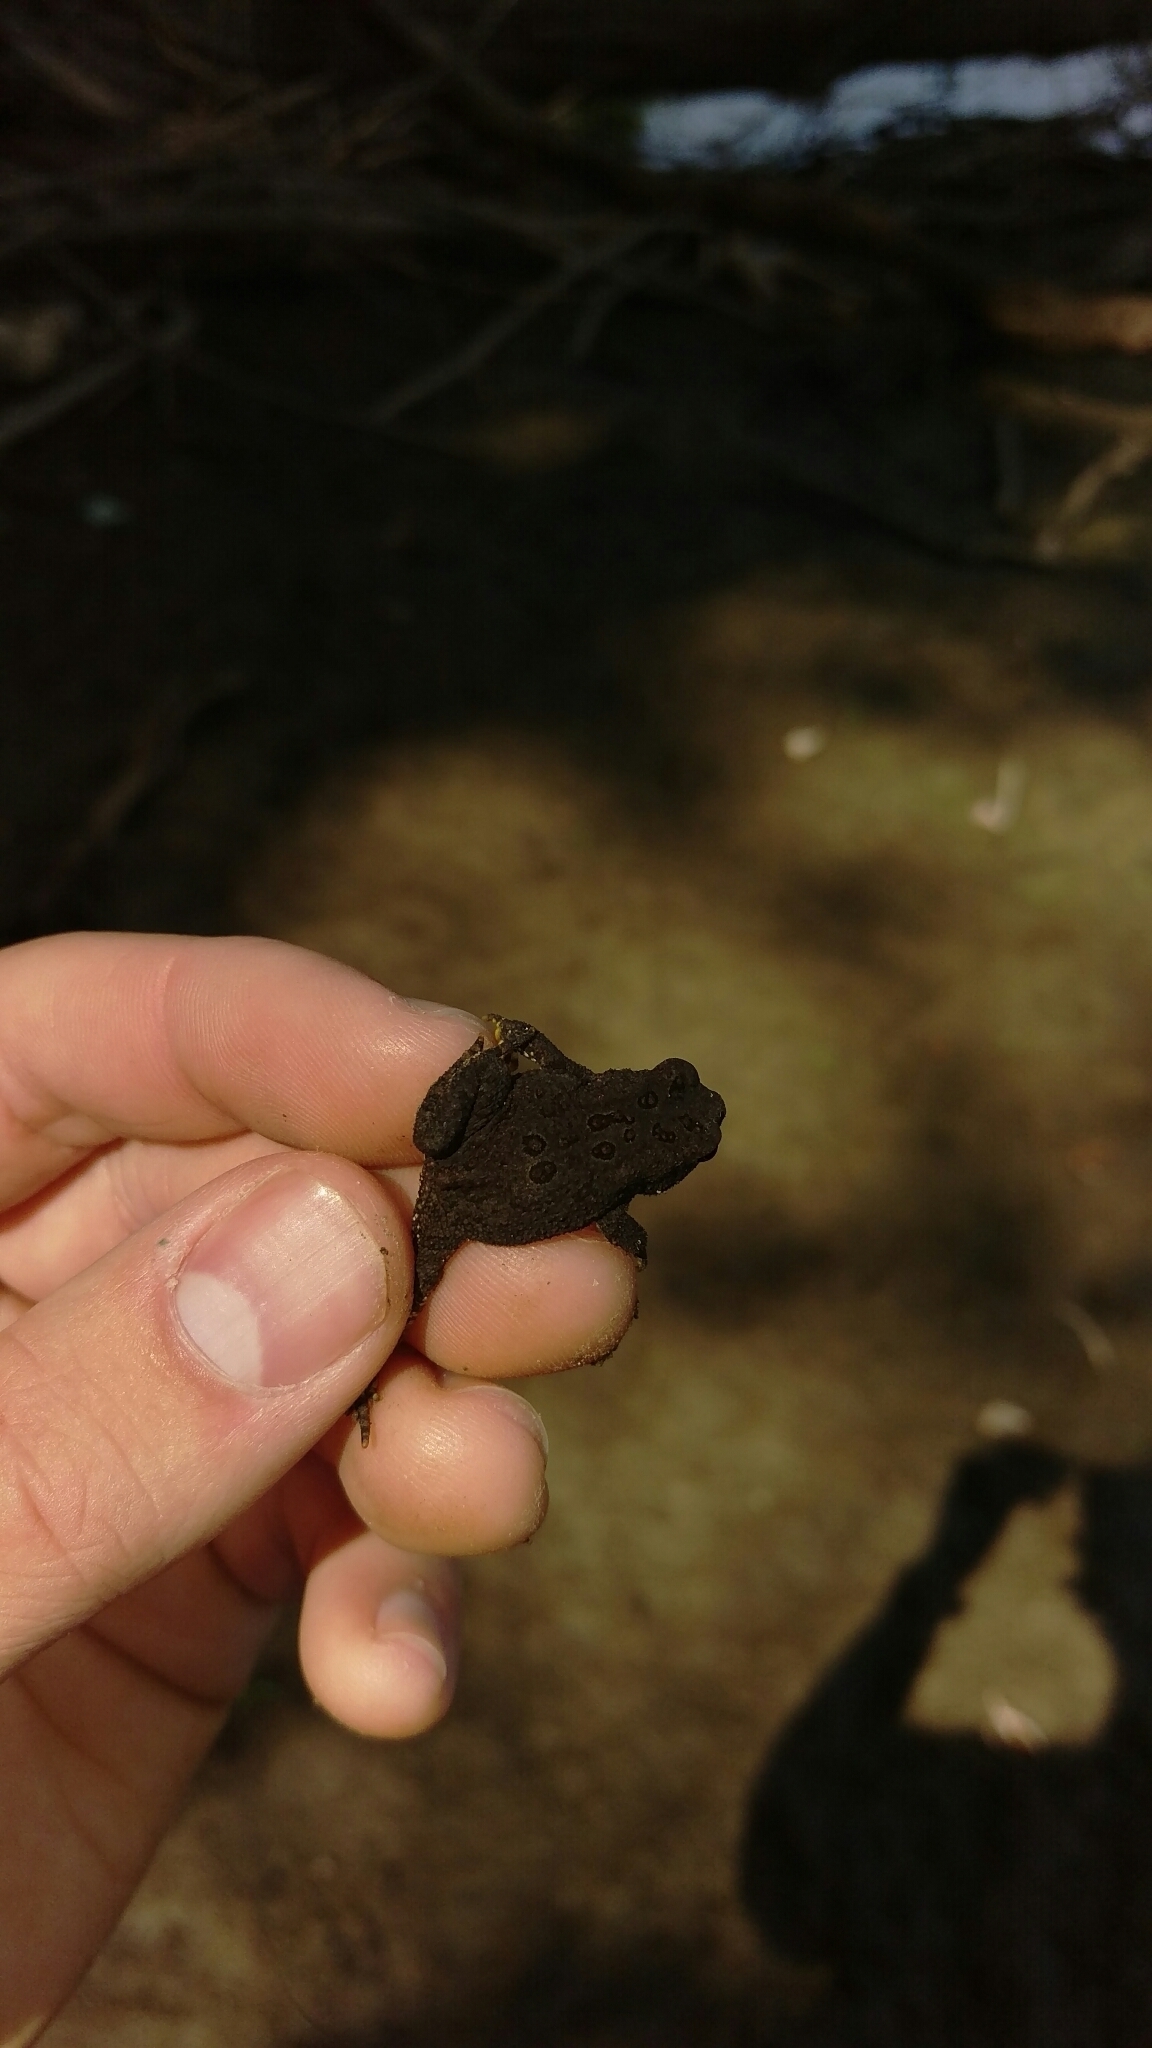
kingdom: Animalia
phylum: Chordata
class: Amphibia
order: Anura
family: Bufonidae
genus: Anaxyrus
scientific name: Anaxyrus americanus
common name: American toad
